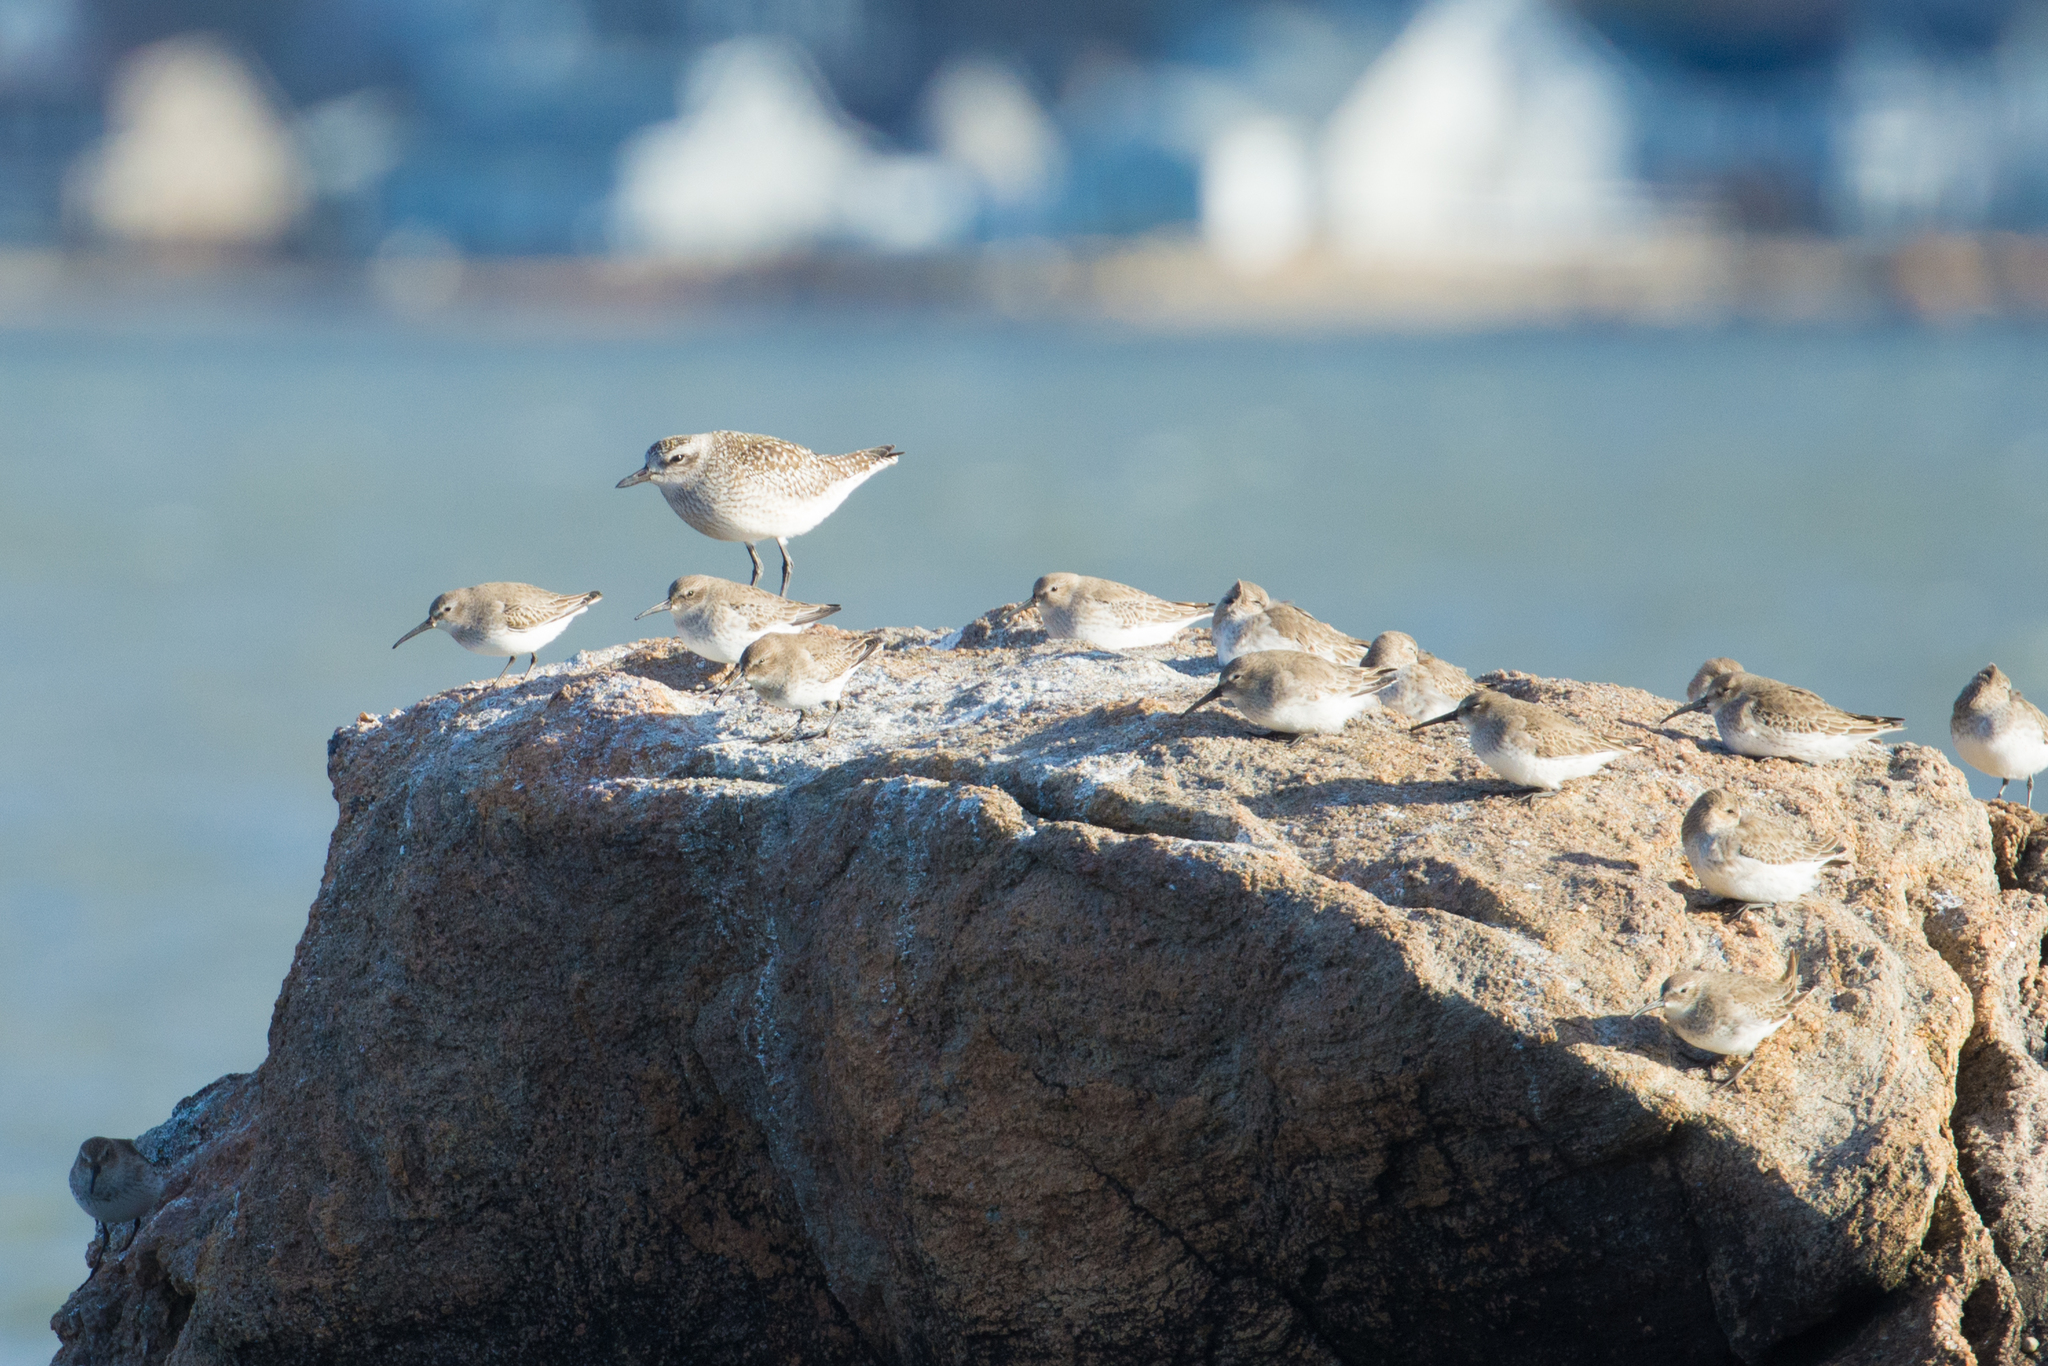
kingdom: Animalia
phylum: Chordata
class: Aves
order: Charadriiformes
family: Charadriidae
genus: Pluvialis
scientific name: Pluvialis squatarola
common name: Grey plover
